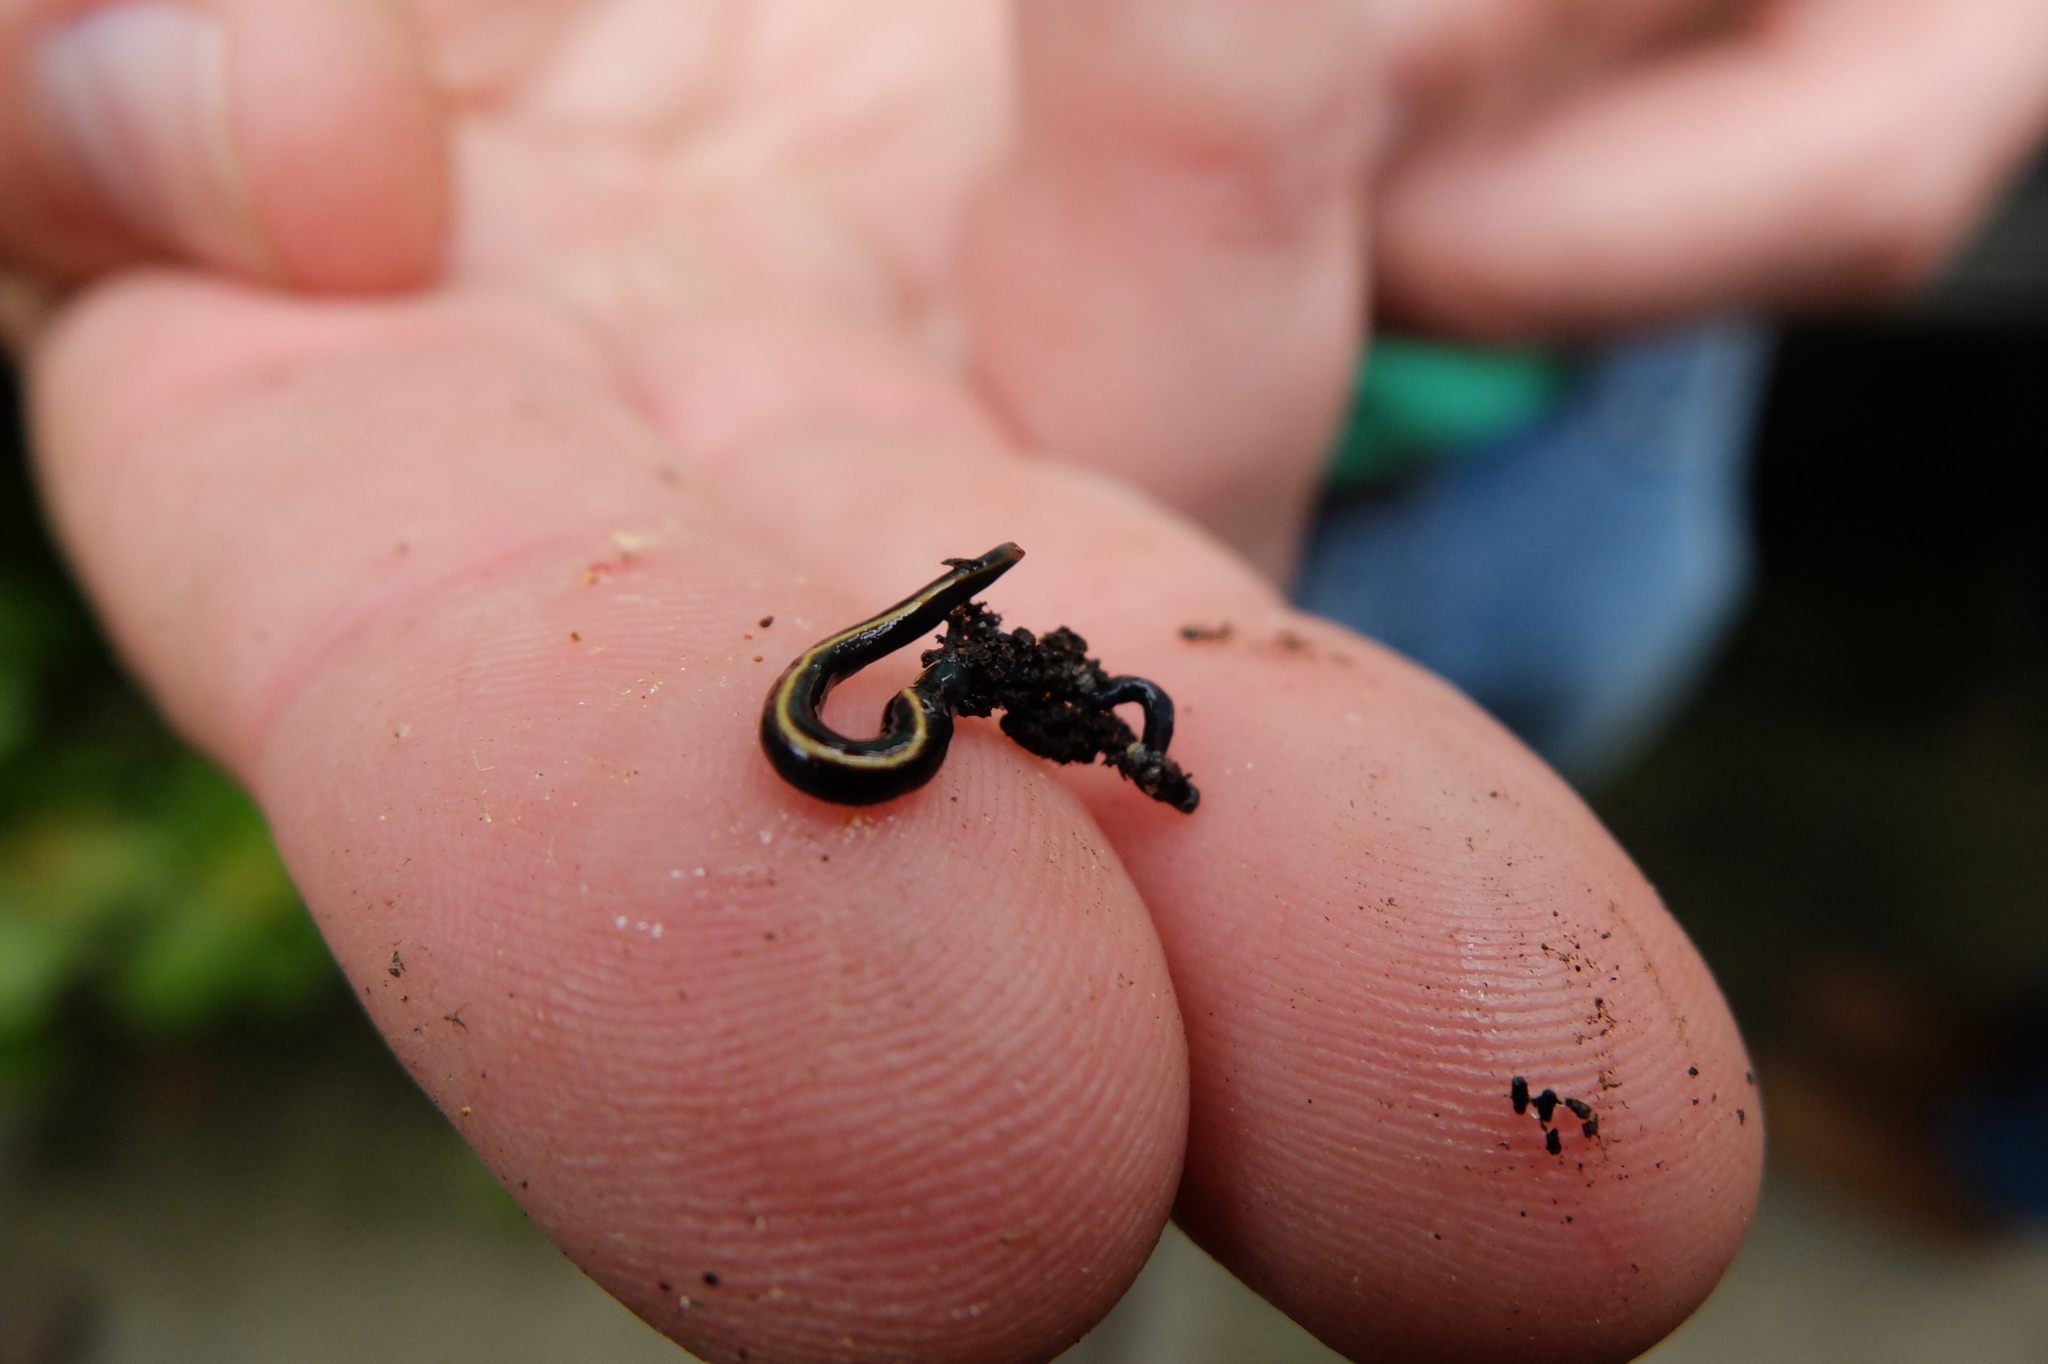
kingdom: Animalia
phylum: Platyhelminthes
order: Tricladida
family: Geoplanidae
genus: Caenoplana
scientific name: Caenoplana coerulea
